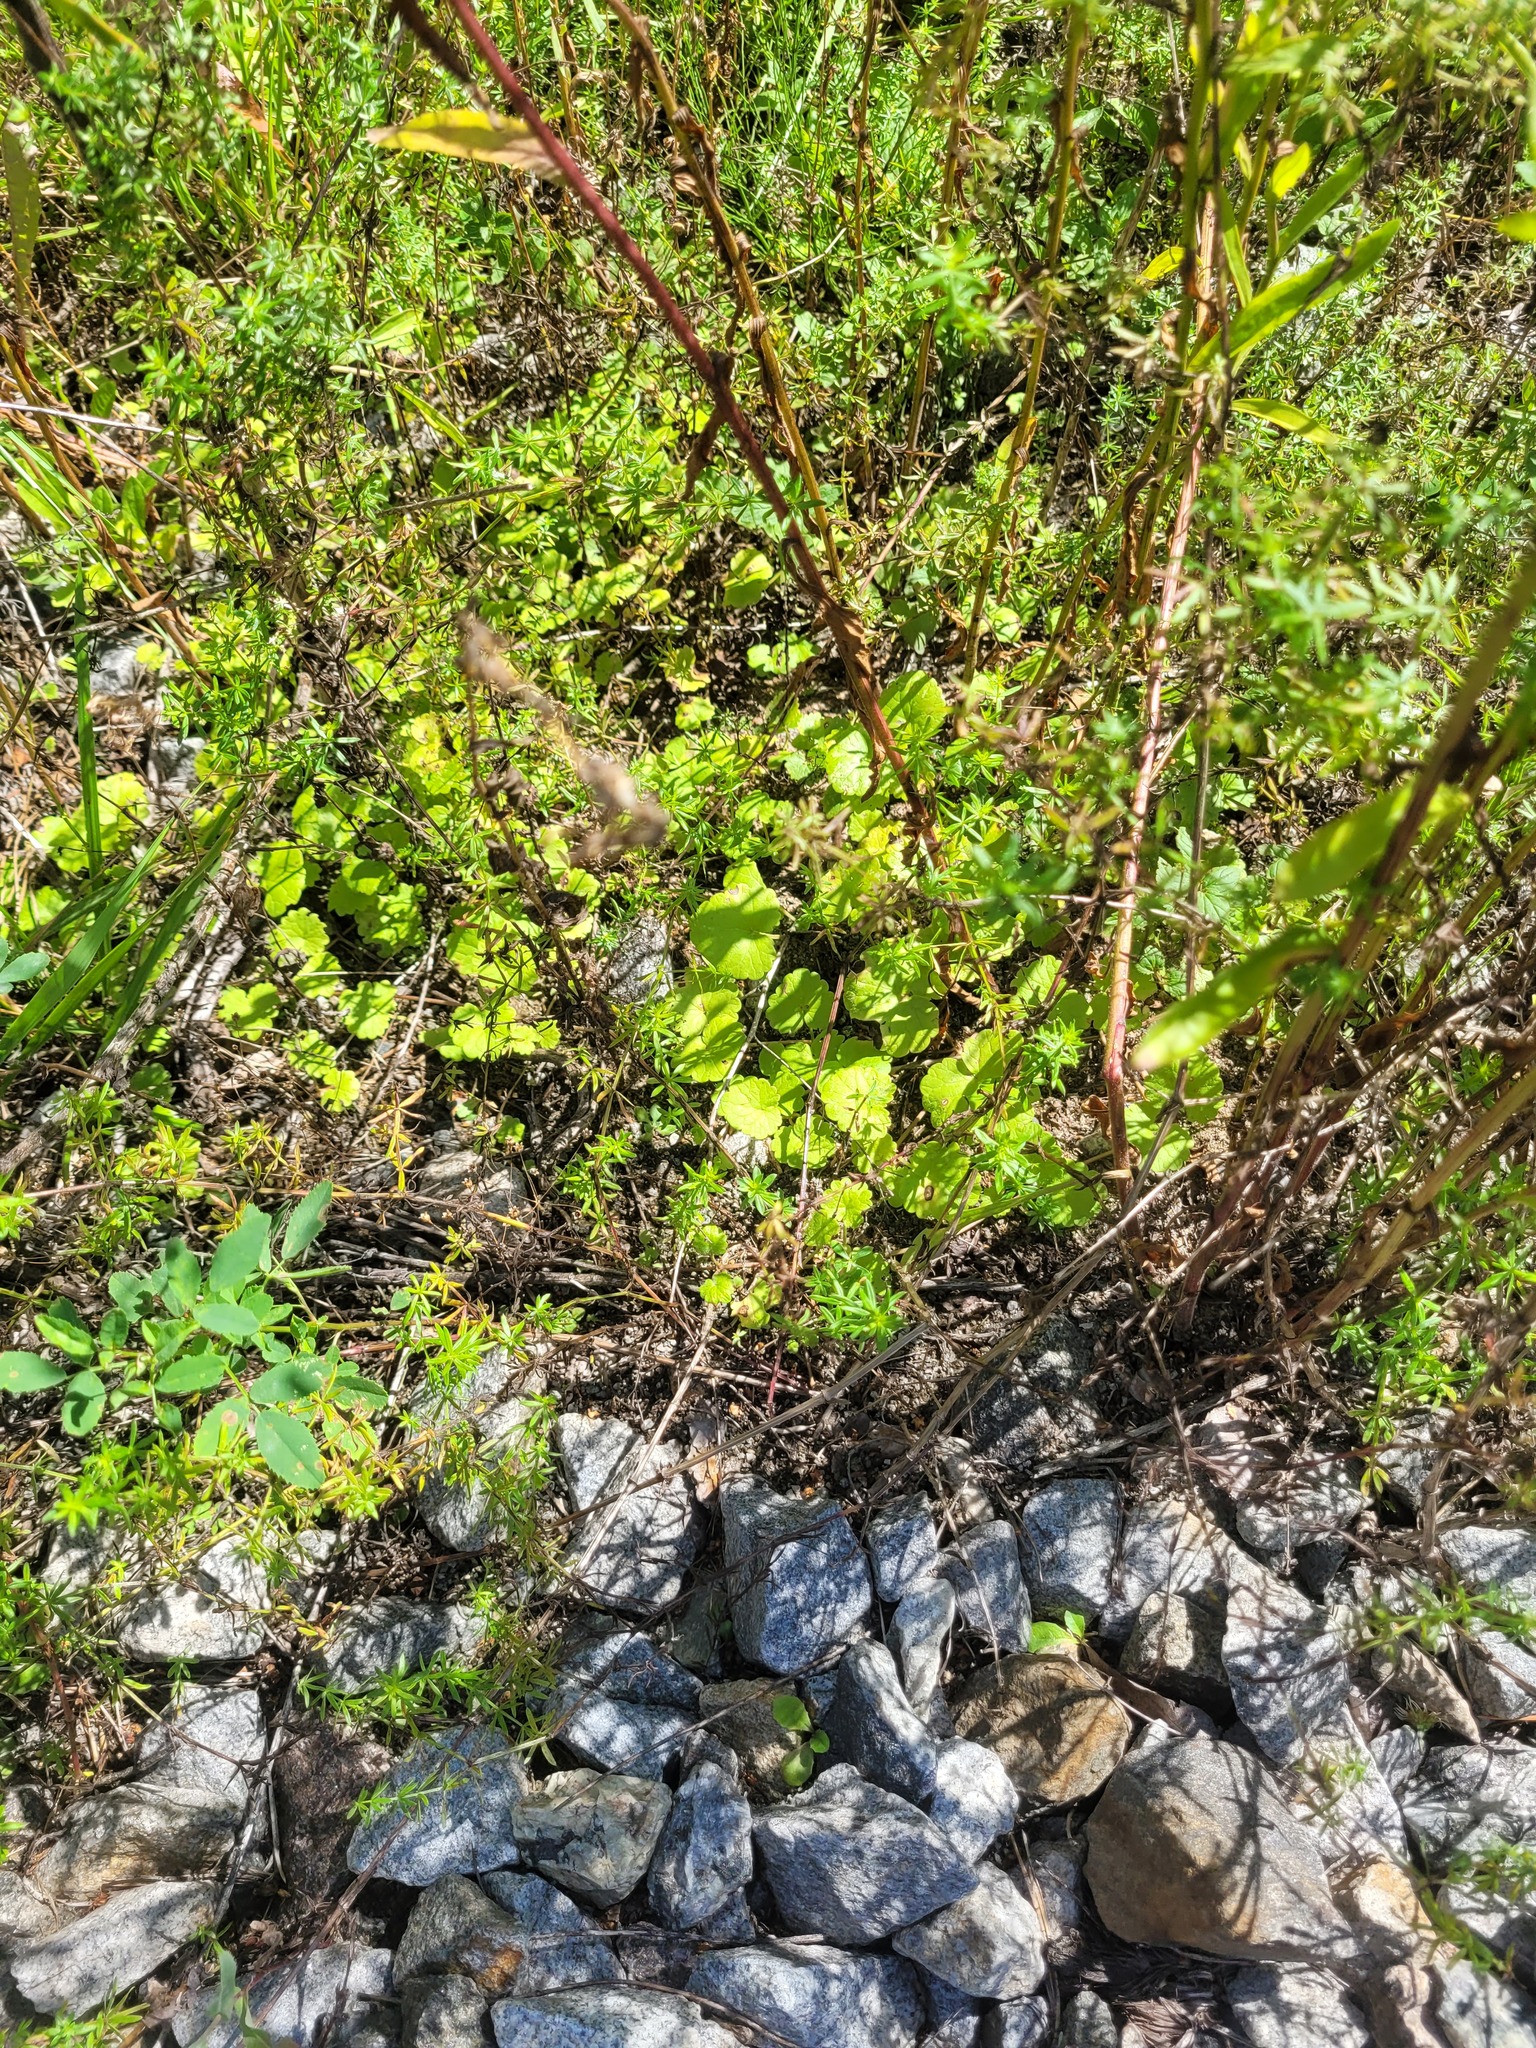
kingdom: Plantae
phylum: Tracheophyta
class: Magnoliopsida
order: Lamiales
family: Lamiaceae
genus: Glechoma
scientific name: Glechoma hederacea
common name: Ground ivy
